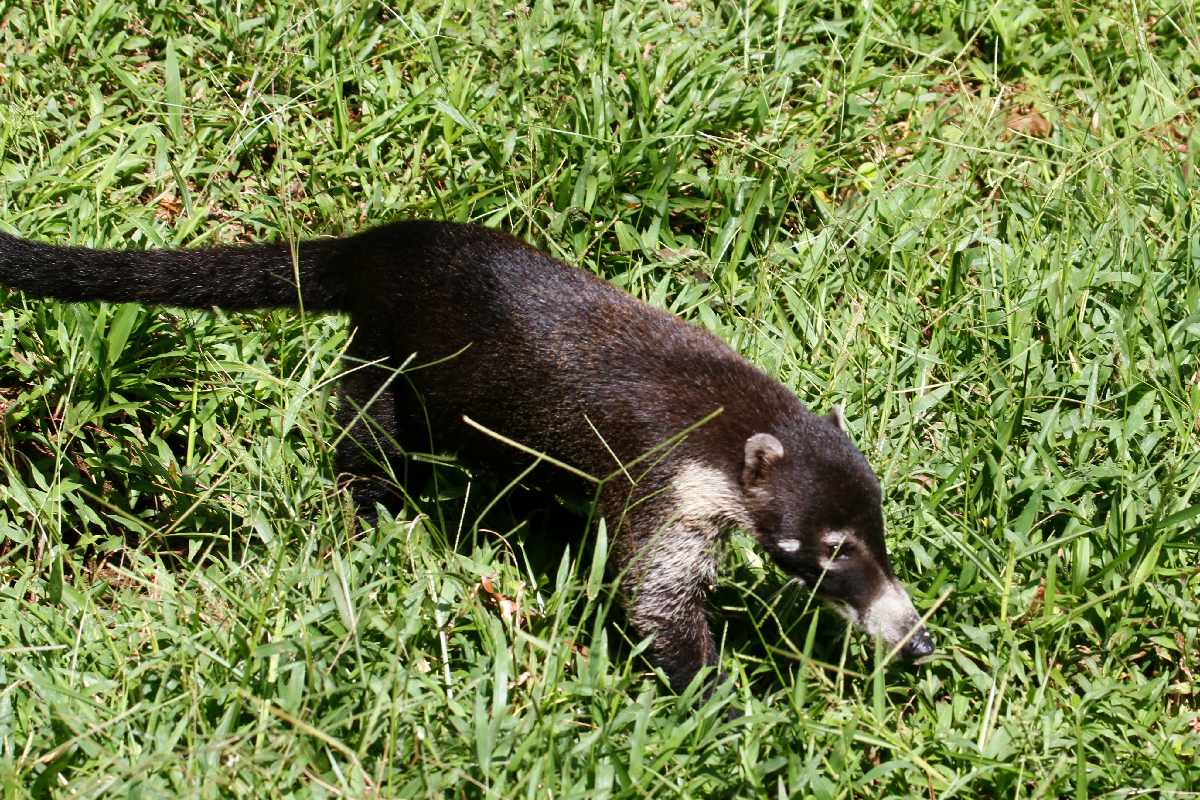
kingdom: Animalia
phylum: Chordata
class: Mammalia
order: Carnivora
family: Procyonidae
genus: Nasua
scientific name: Nasua narica
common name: White-nosed coati
